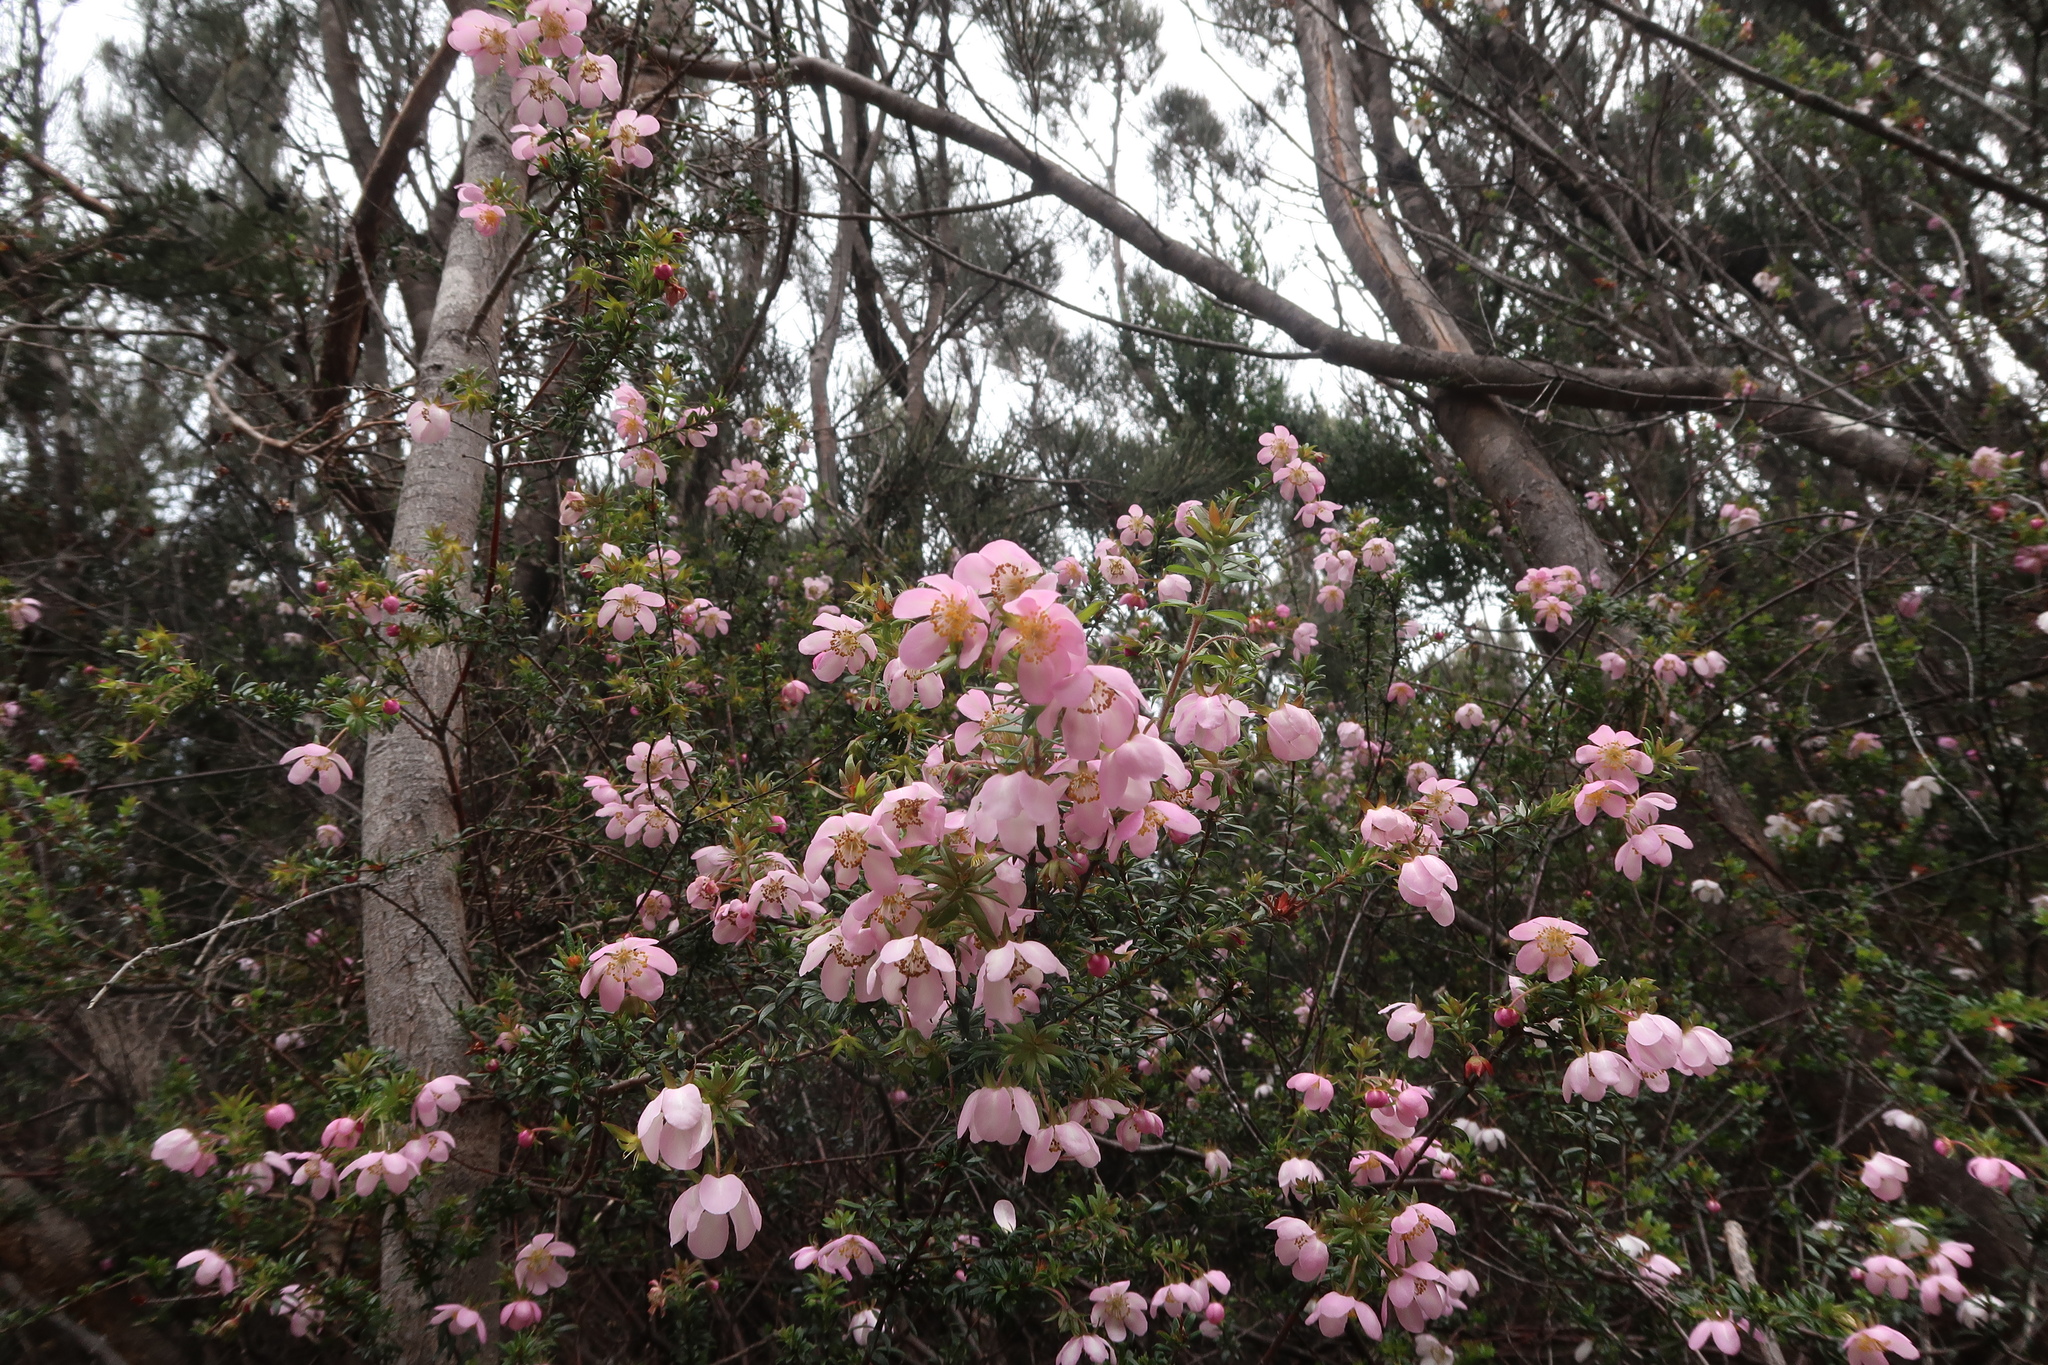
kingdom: Plantae
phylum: Tracheophyta
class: Magnoliopsida
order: Oxalidales
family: Cunoniaceae
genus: Bauera
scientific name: Bauera rubioides
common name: River-rose
